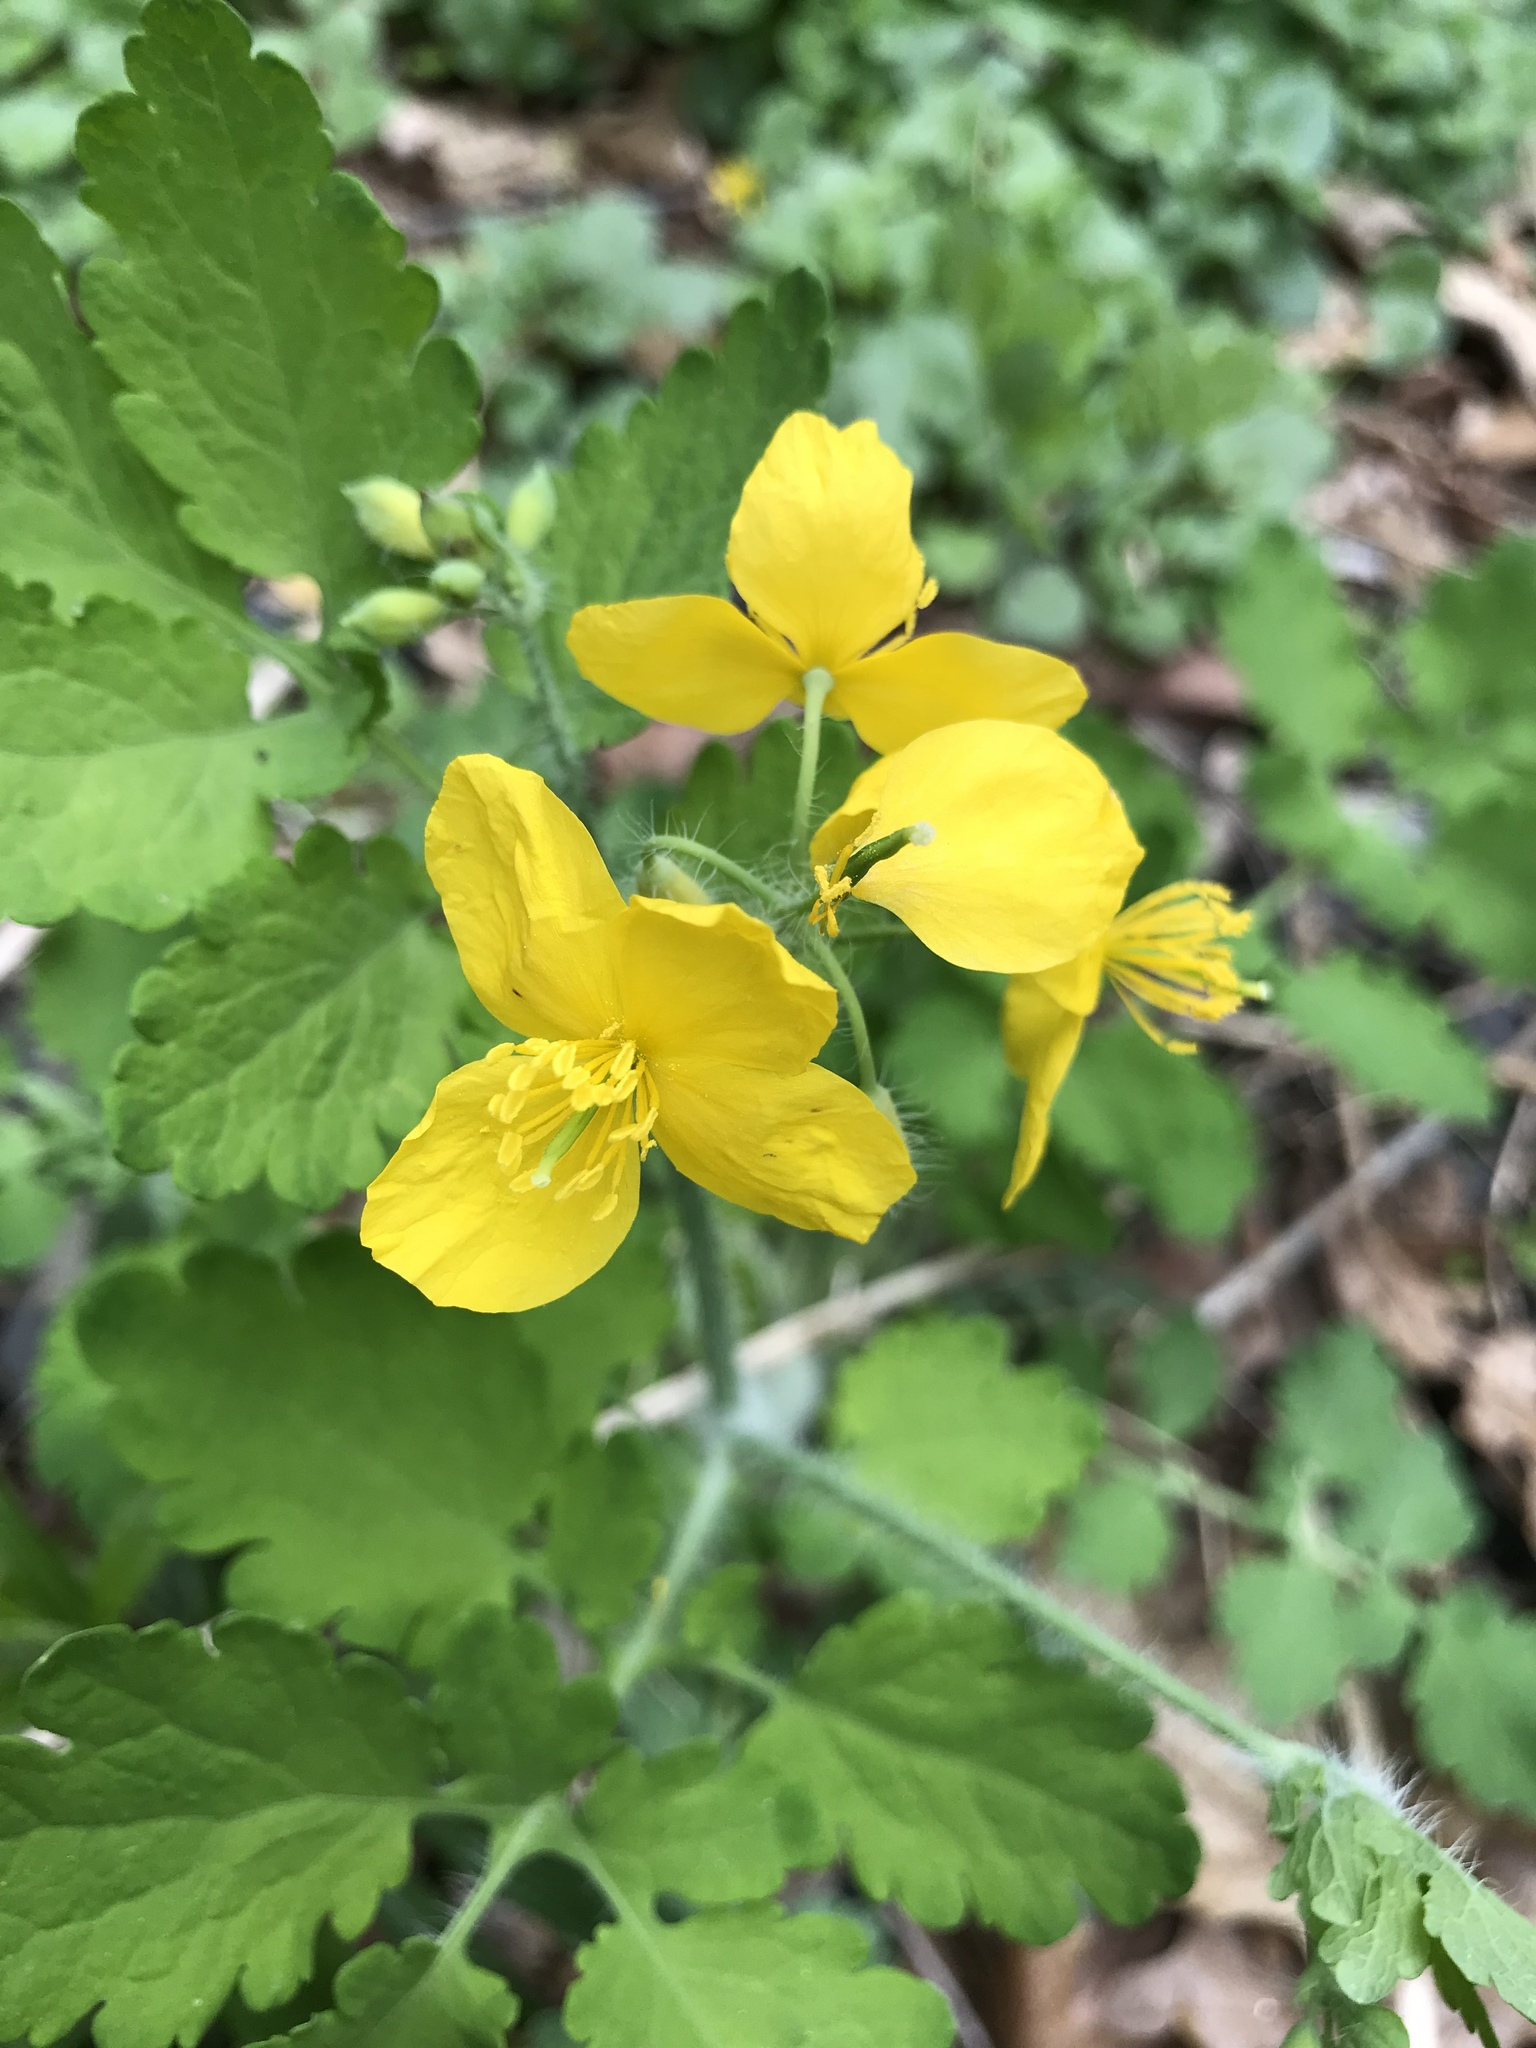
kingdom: Plantae
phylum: Tracheophyta
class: Magnoliopsida
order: Ranunculales
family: Papaveraceae
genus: Chelidonium
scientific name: Chelidonium majus
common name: Greater celandine
